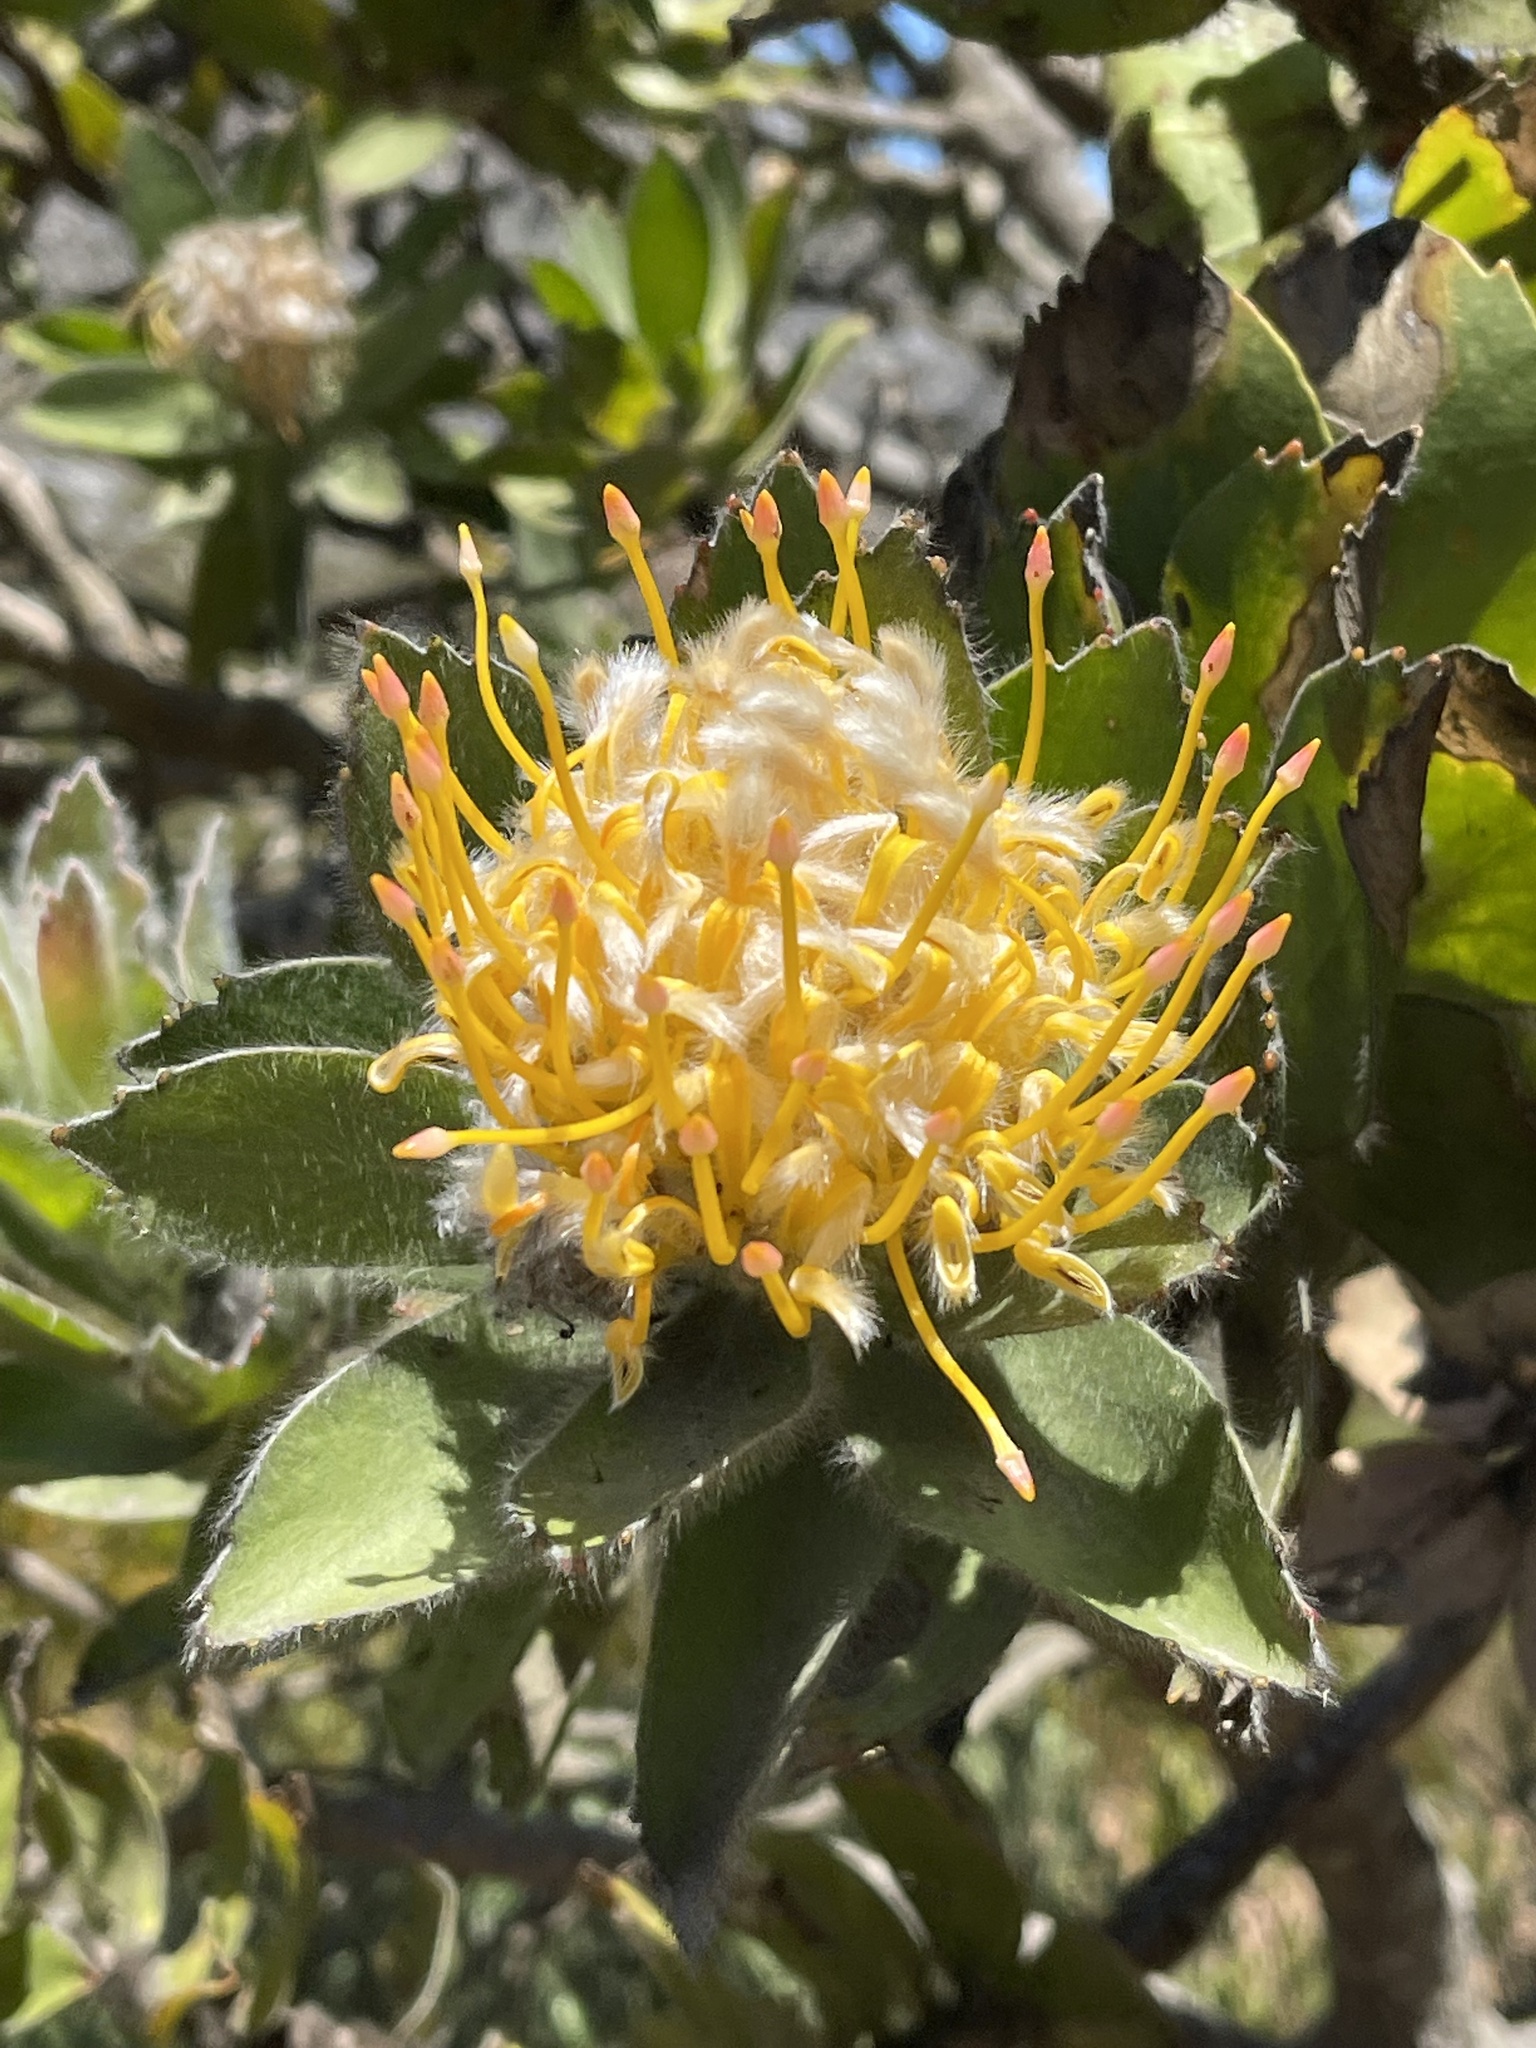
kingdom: Plantae
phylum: Tracheophyta
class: Magnoliopsida
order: Proteales
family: Proteaceae
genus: Leucospermum
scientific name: Leucospermum conocarpodendron
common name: Tree pincushion
